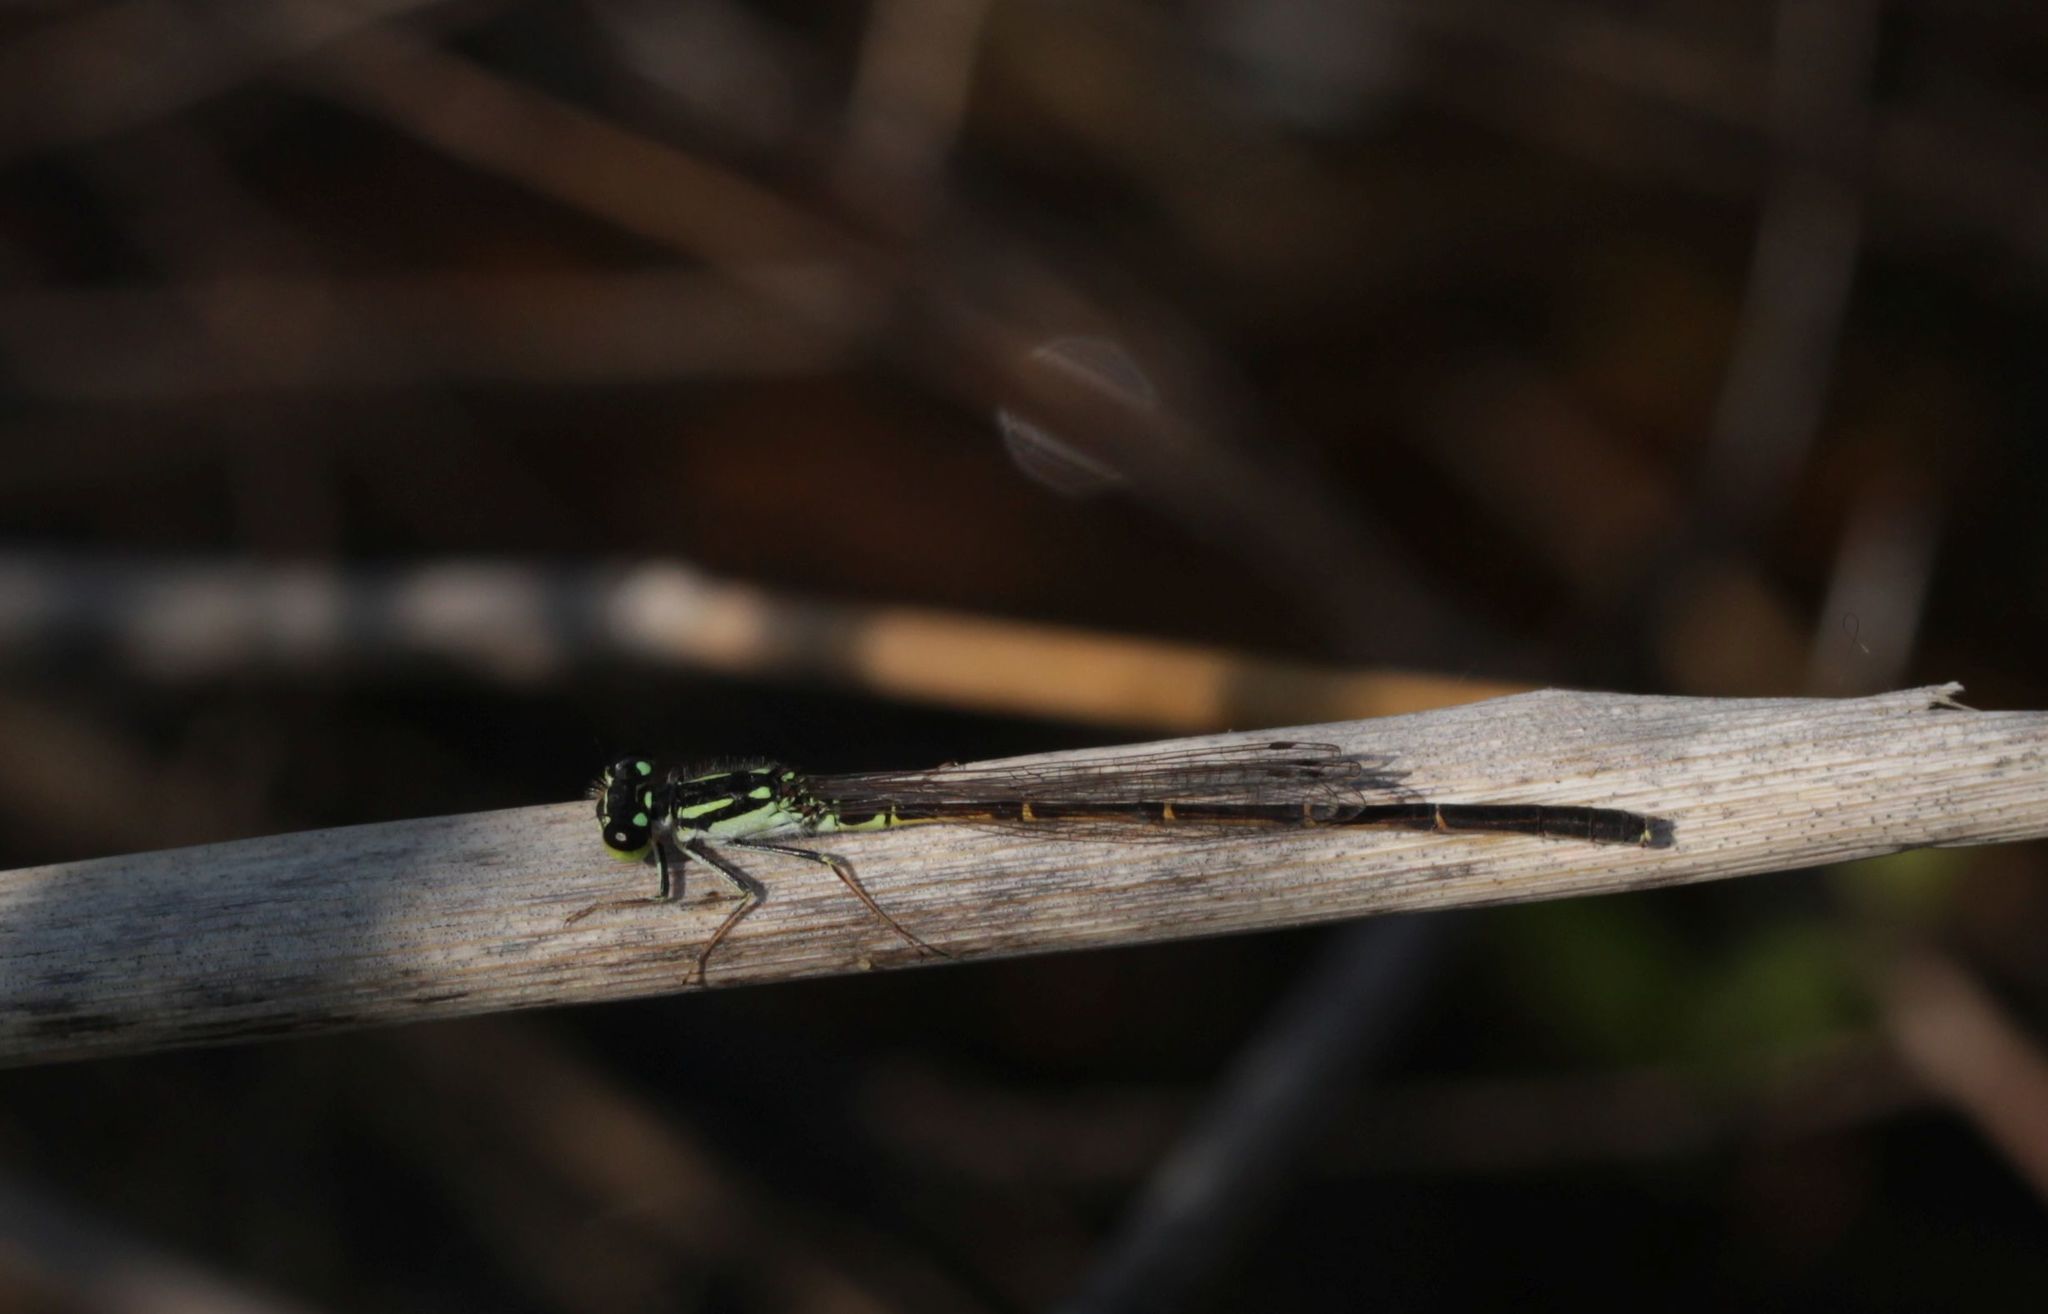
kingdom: Animalia
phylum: Arthropoda
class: Insecta
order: Odonata
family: Coenagrionidae
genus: Ischnura
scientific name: Ischnura posita
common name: Fragile forktail
